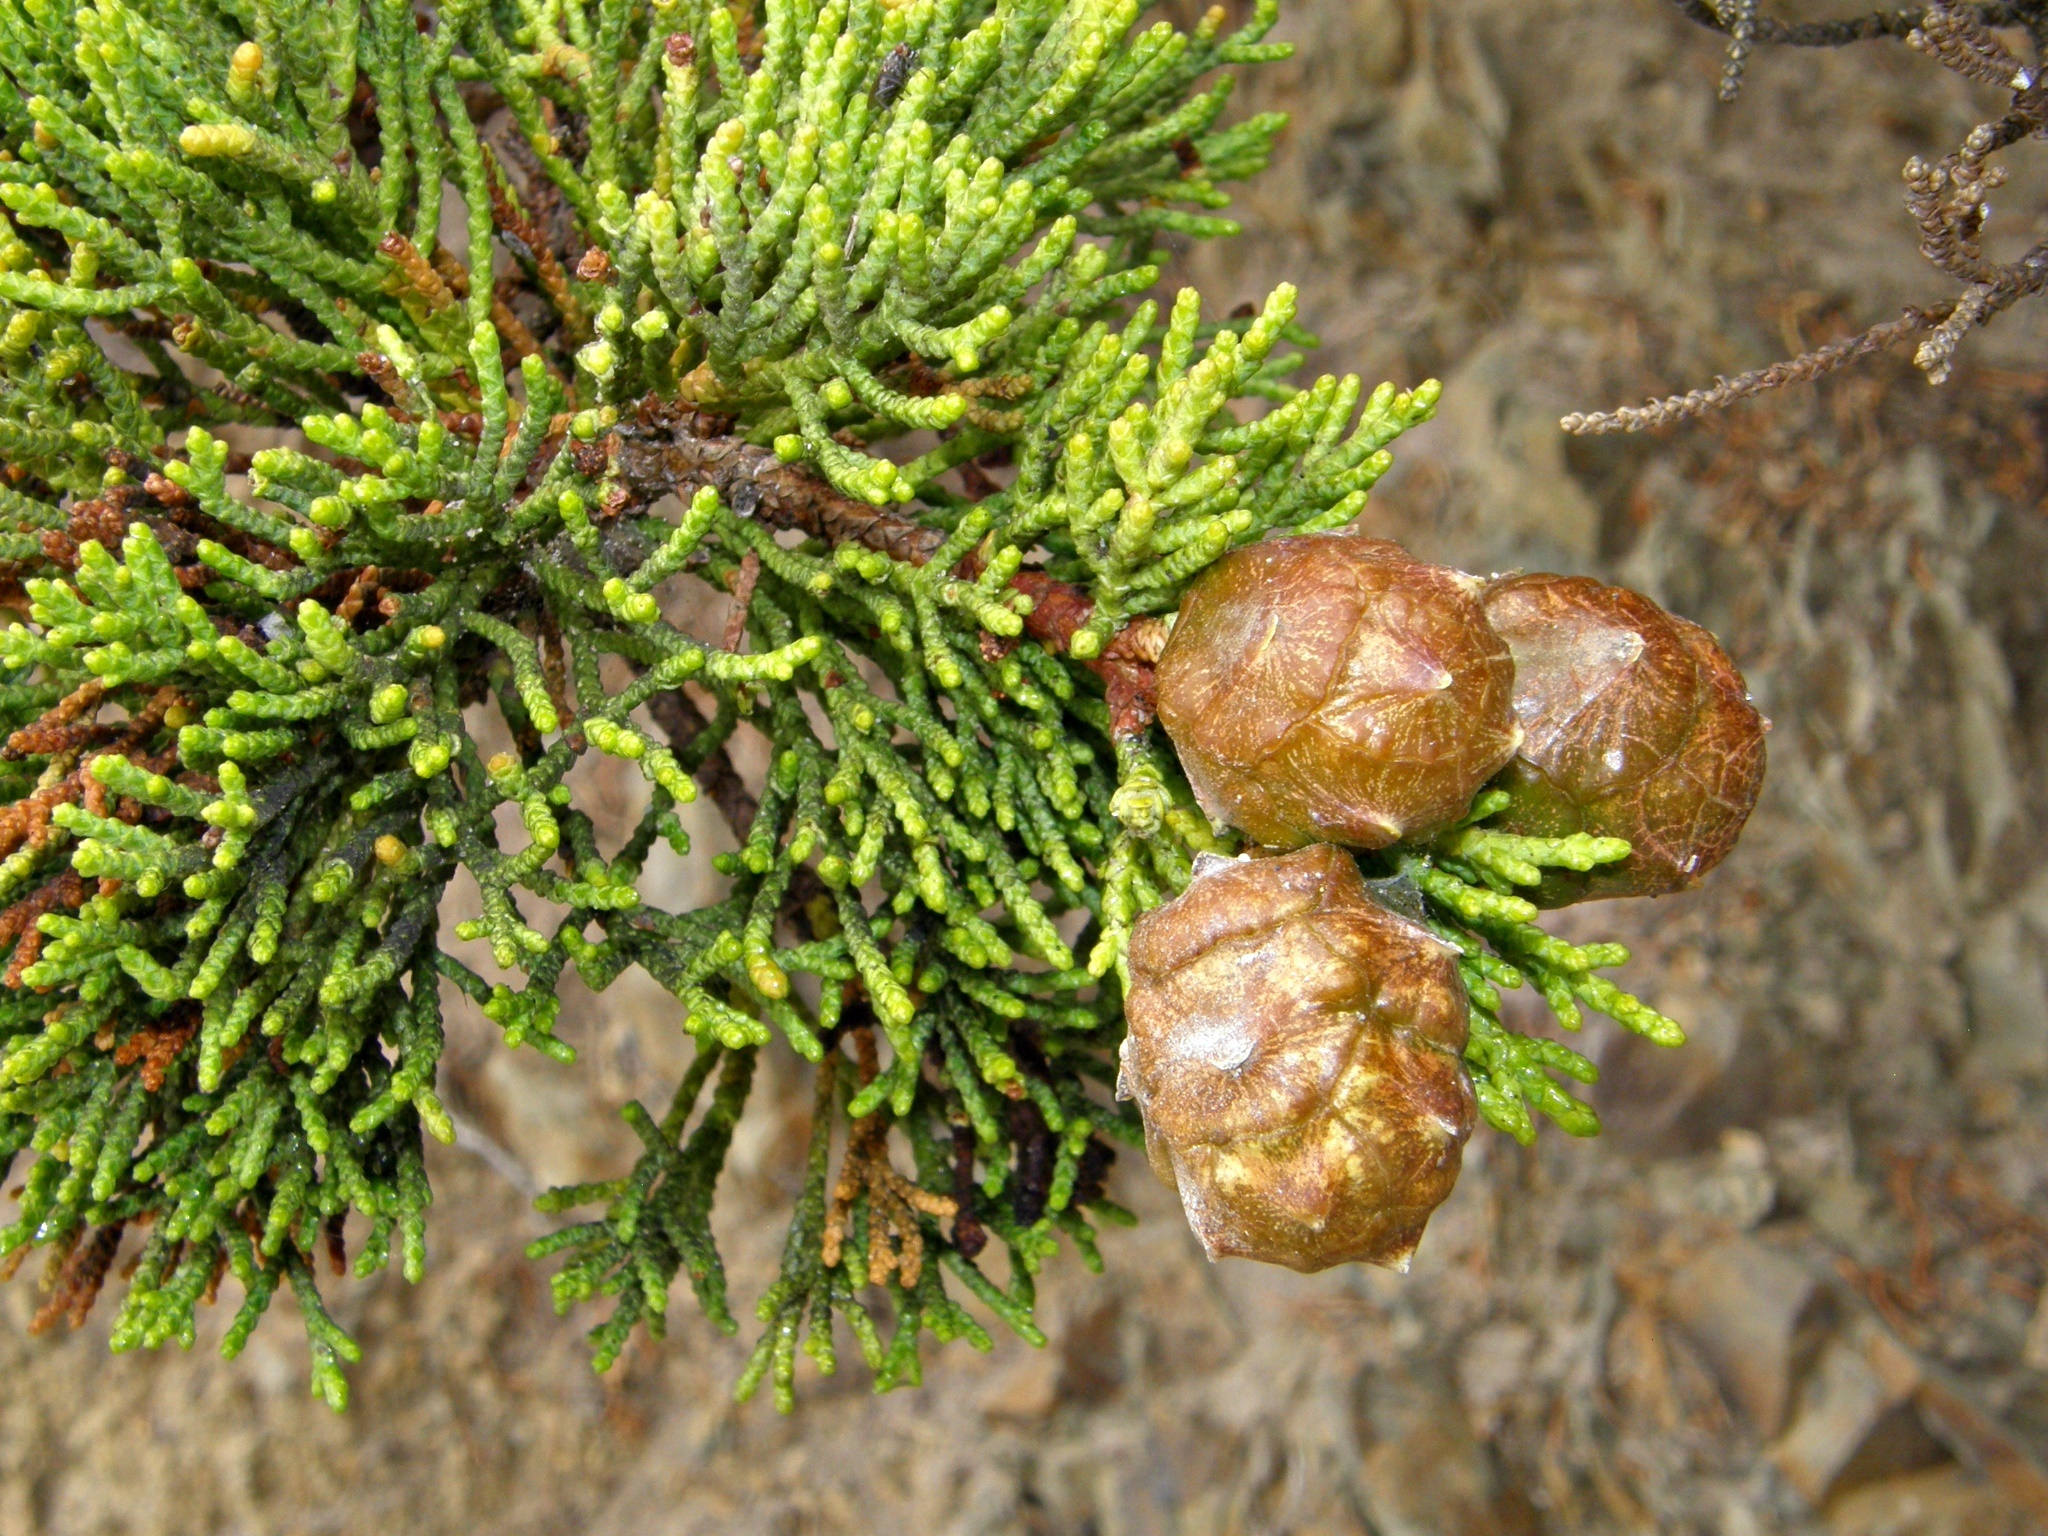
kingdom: Plantae
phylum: Tracheophyta
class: Pinopsida
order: Pinales
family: Cupressaceae
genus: Cupressus
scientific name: Cupressus macrocarpa
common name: Monterey cypress
